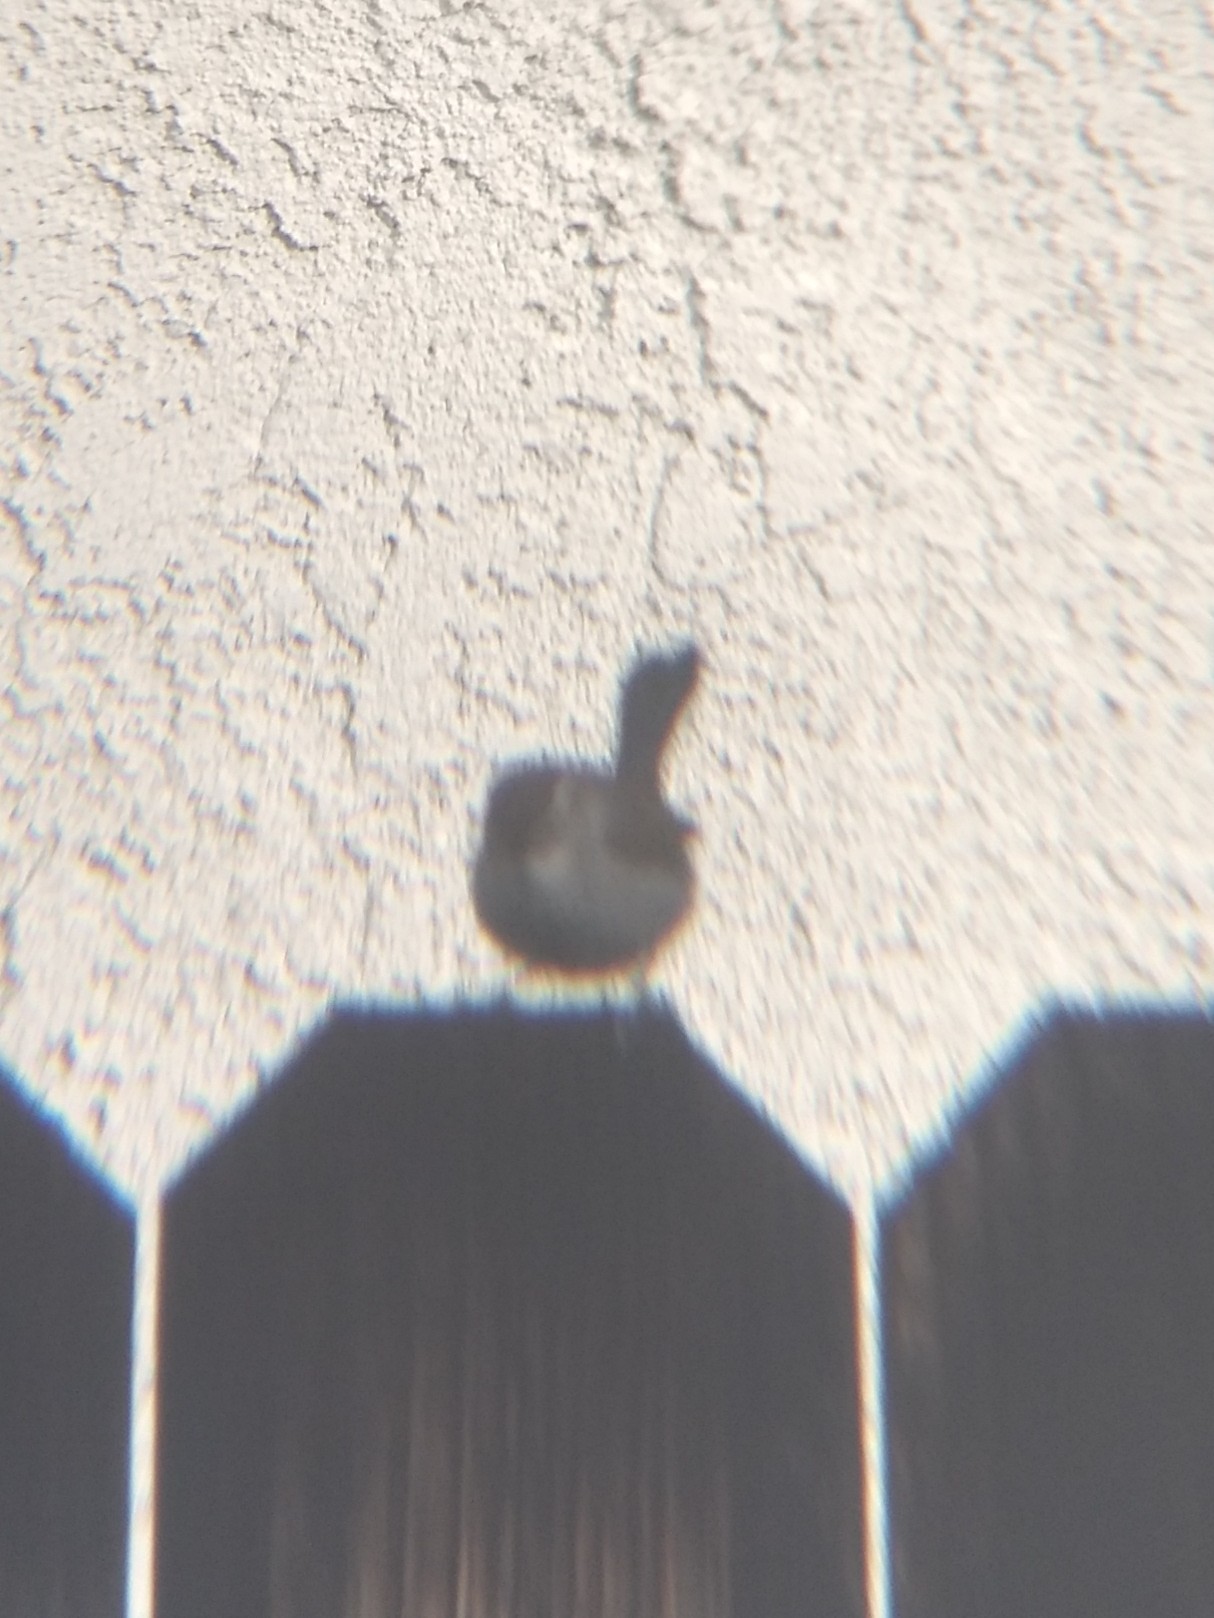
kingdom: Animalia
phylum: Chordata
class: Aves
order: Passeriformes
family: Troglodytidae
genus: Thryomanes
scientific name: Thryomanes bewickii
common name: Bewick's wren
